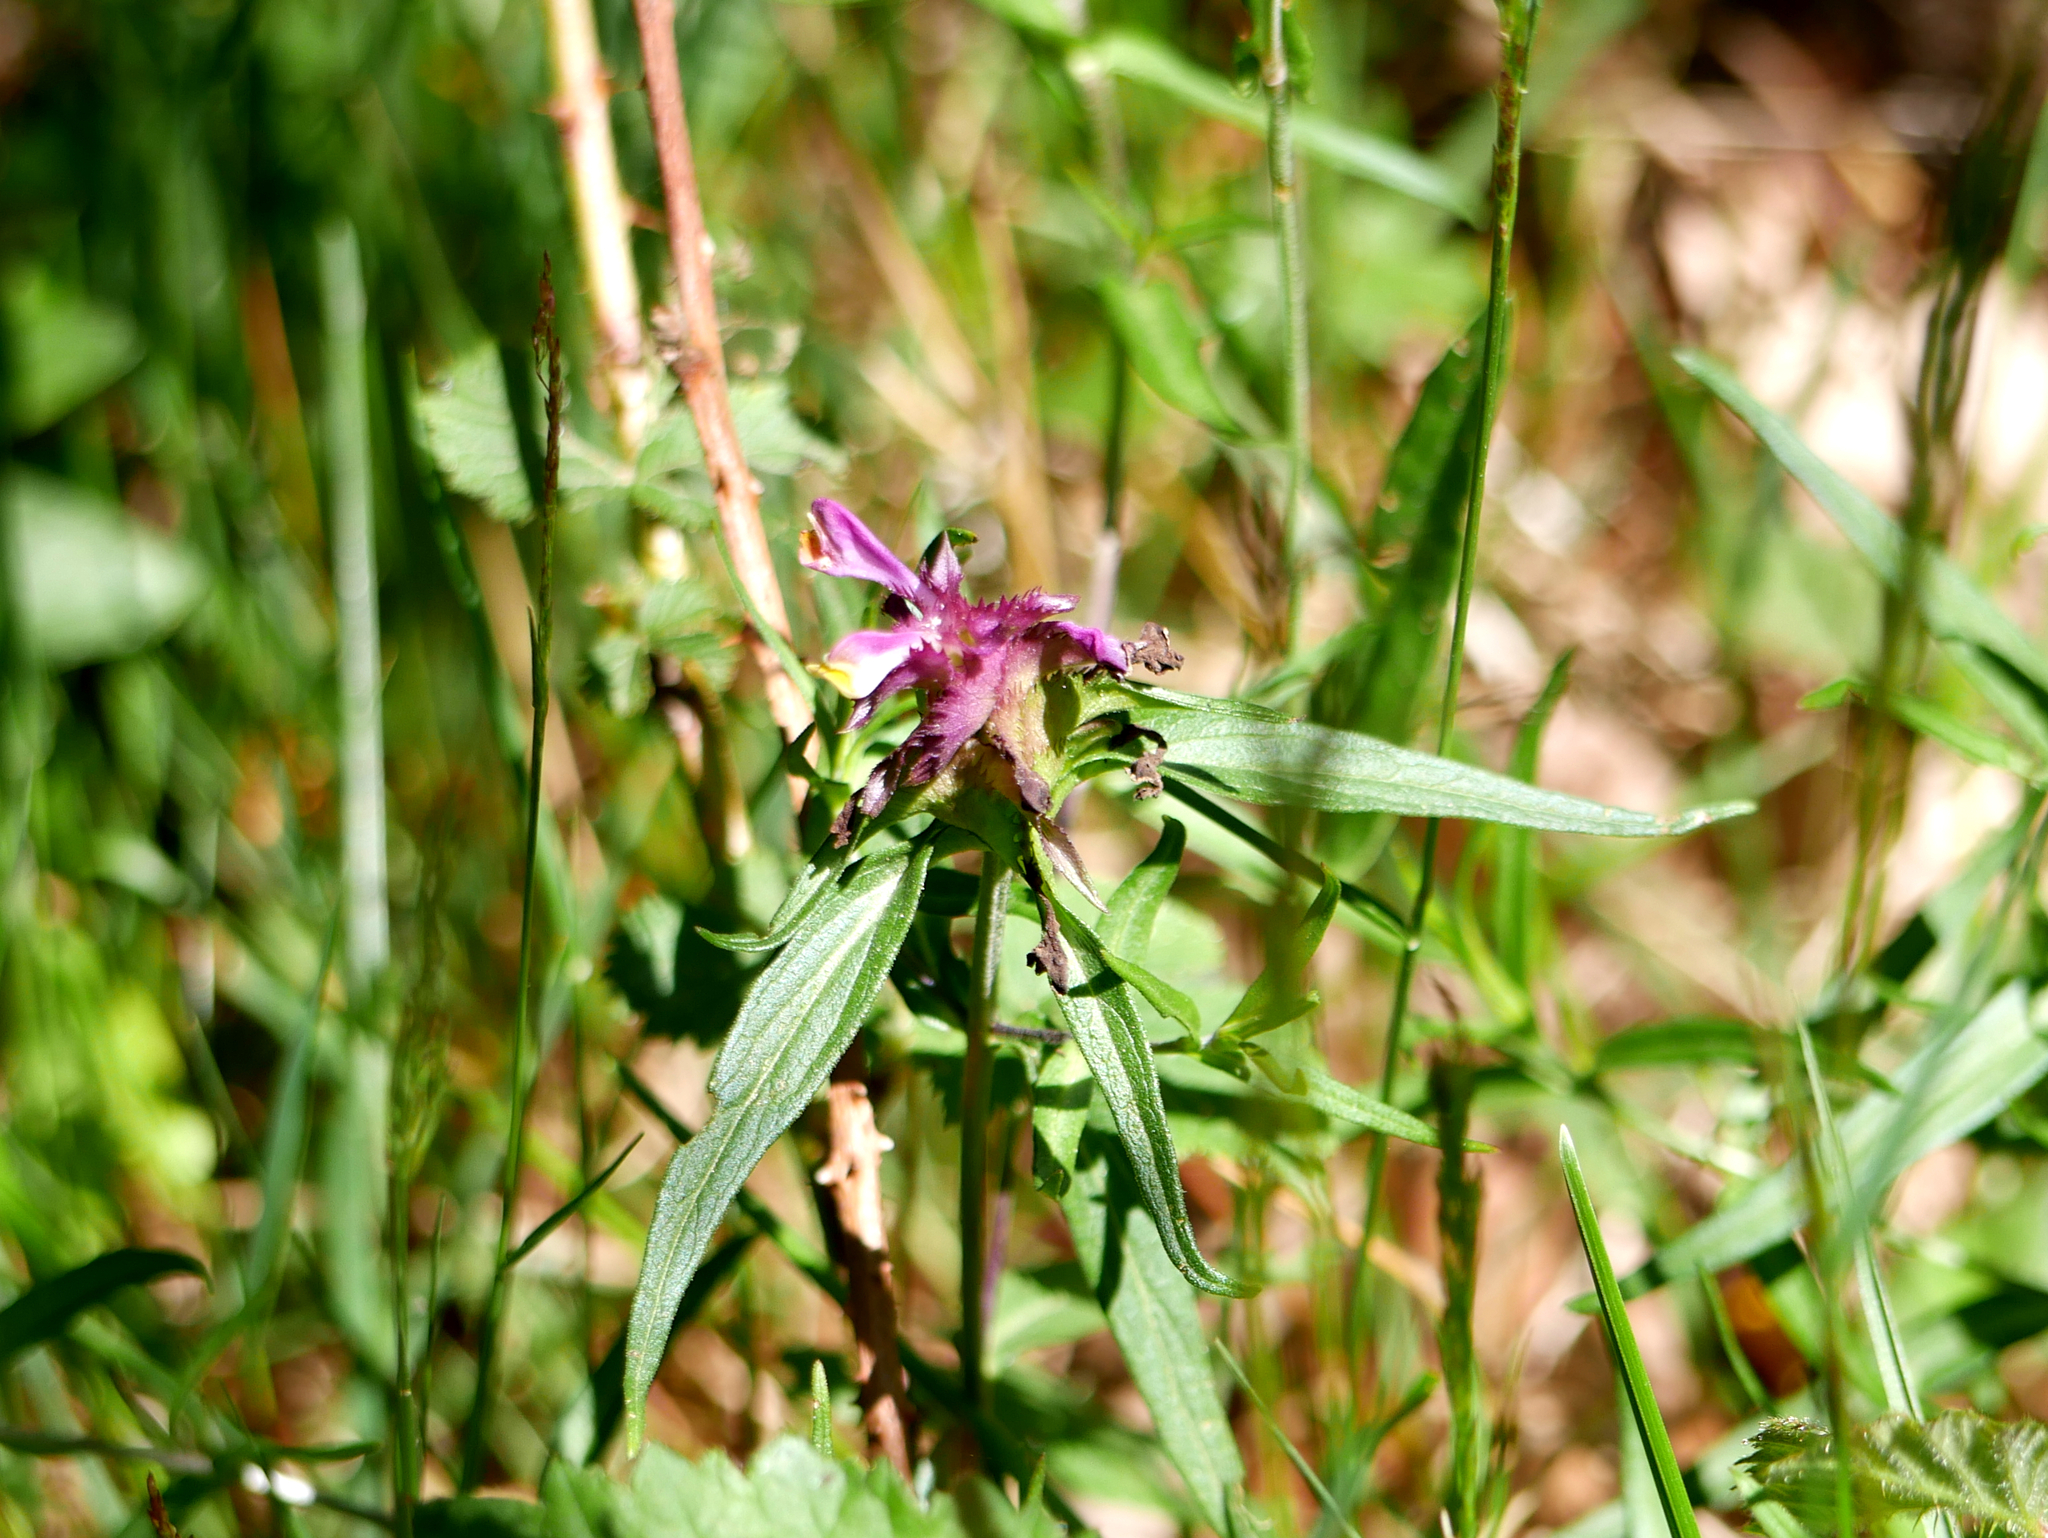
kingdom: Plantae
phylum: Tracheophyta
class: Magnoliopsida
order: Lamiales
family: Orobanchaceae
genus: Melampyrum
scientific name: Melampyrum cristatum
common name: Crested cow-wheat
